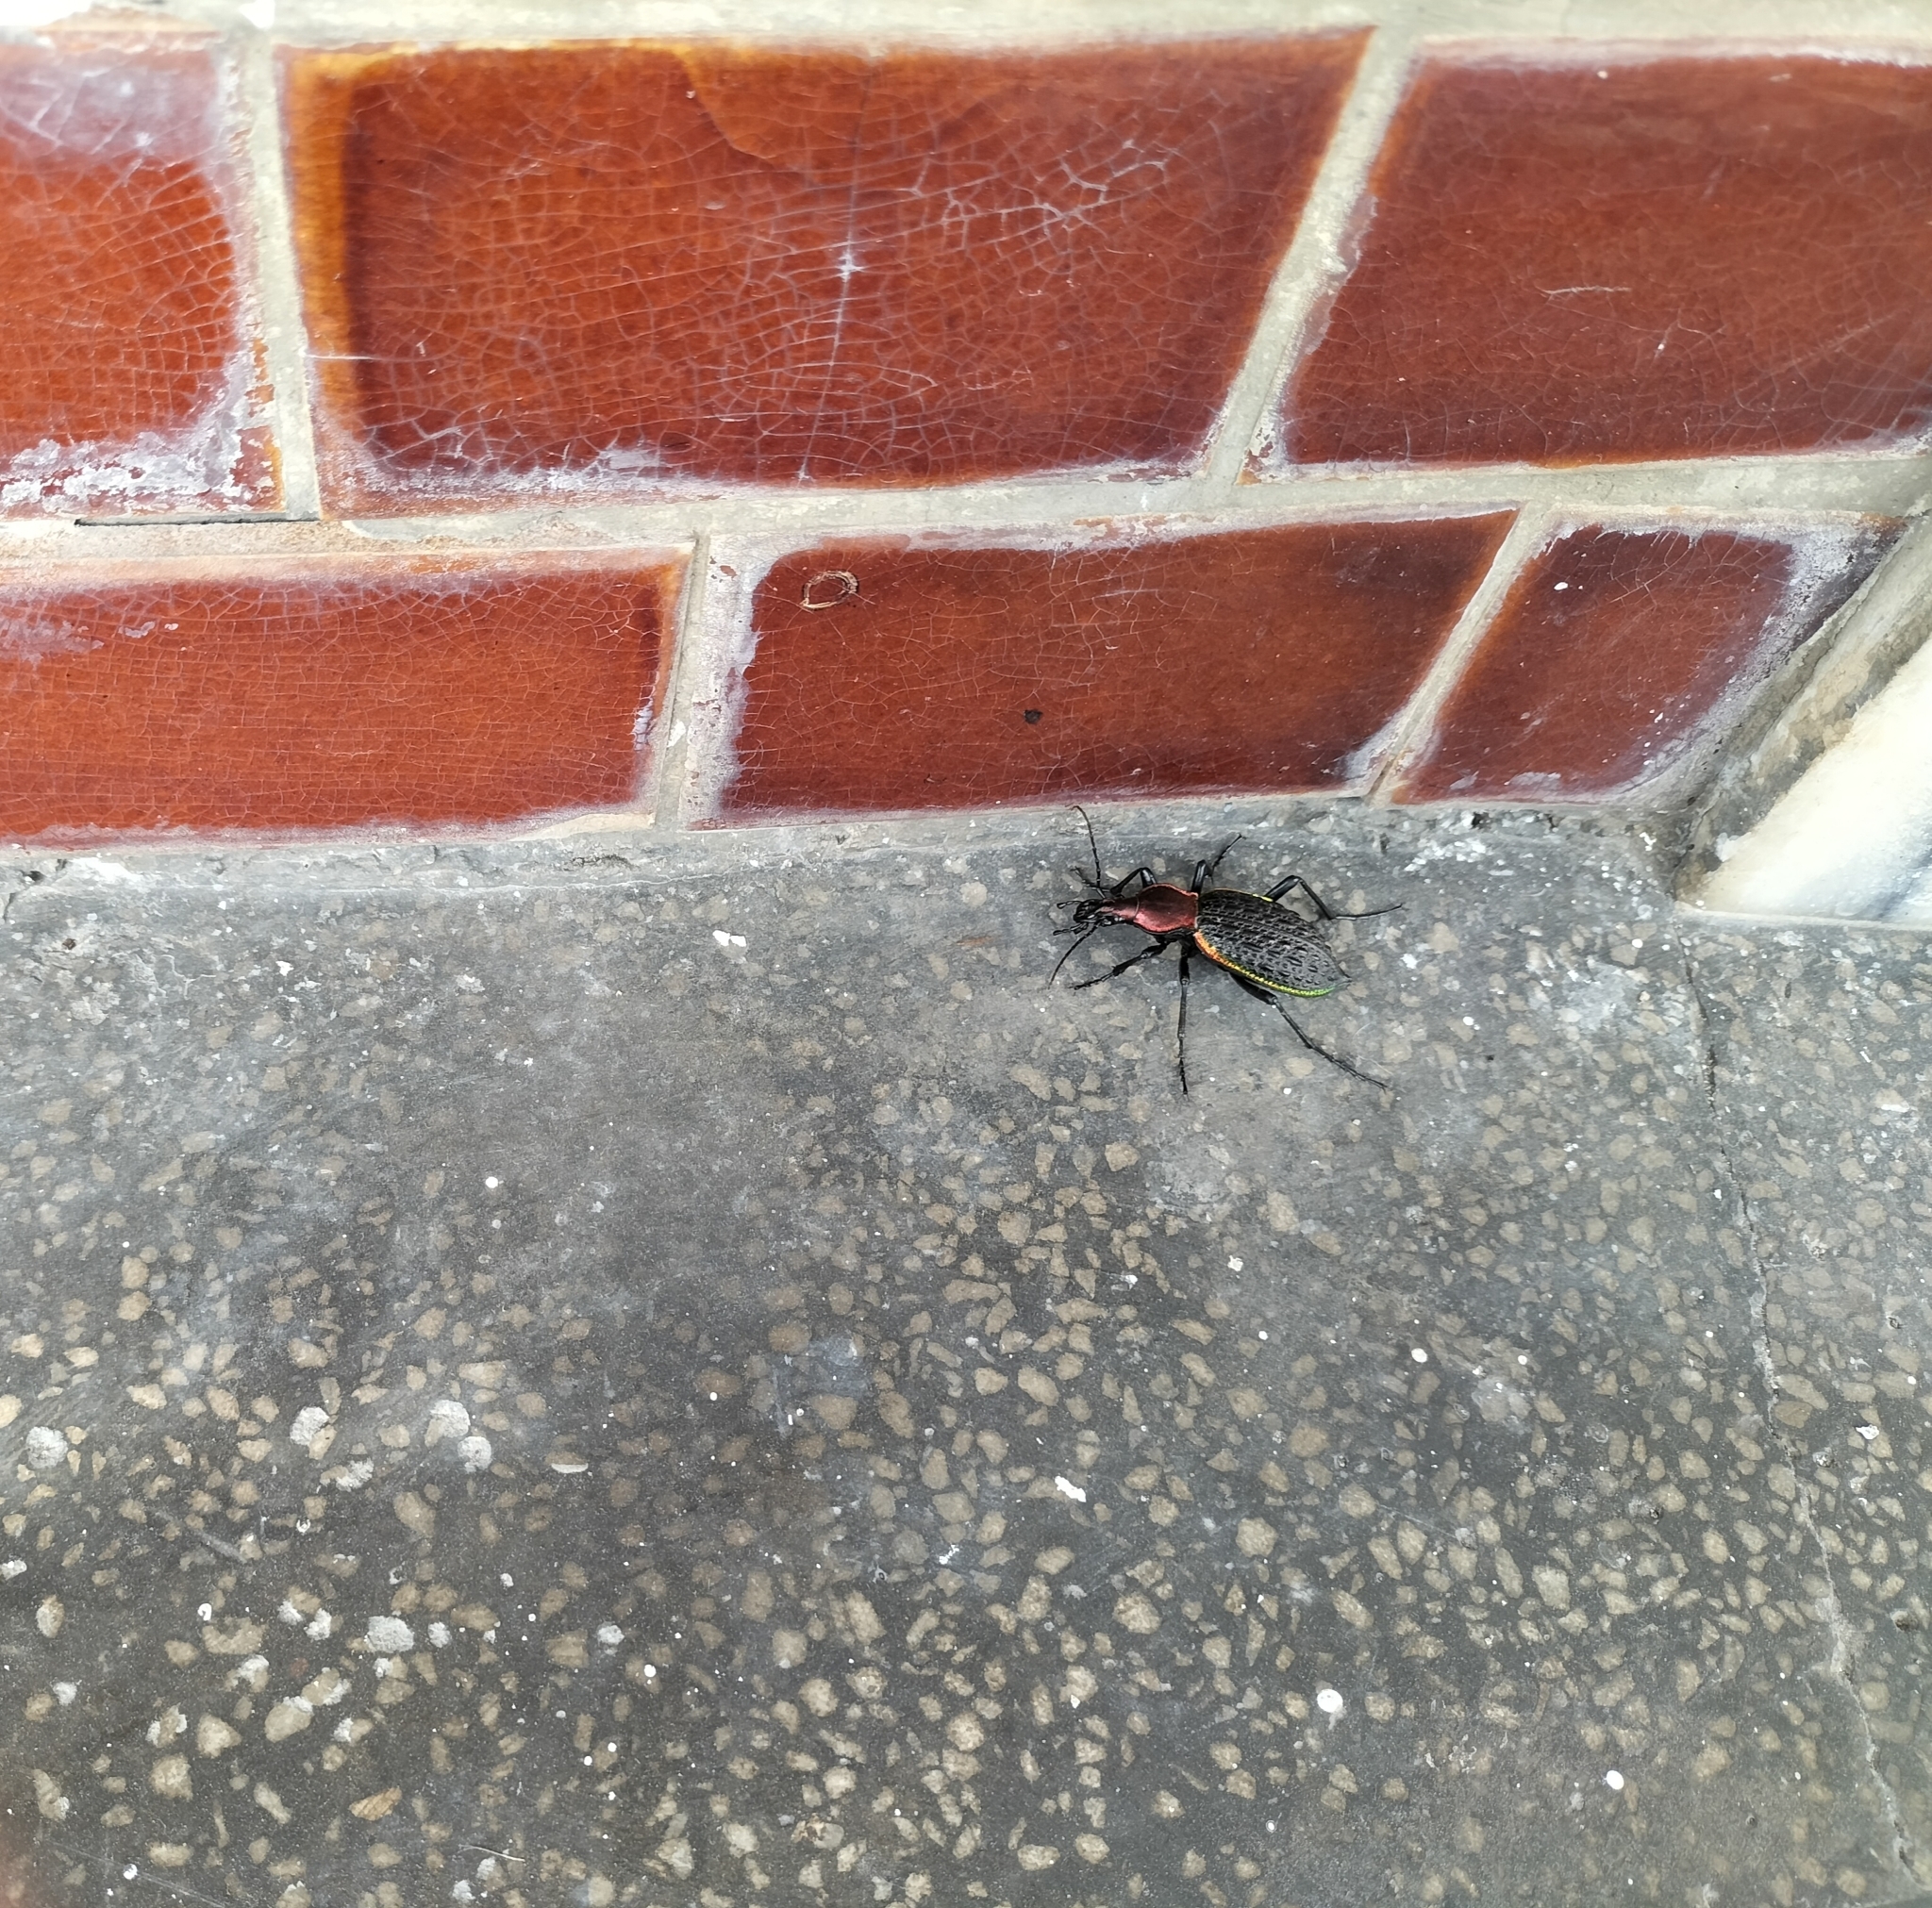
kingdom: Animalia
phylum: Arthropoda
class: Insecta
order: Coleoptera
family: Carabidae
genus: Carabus
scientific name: Carabus nankotaizanus
